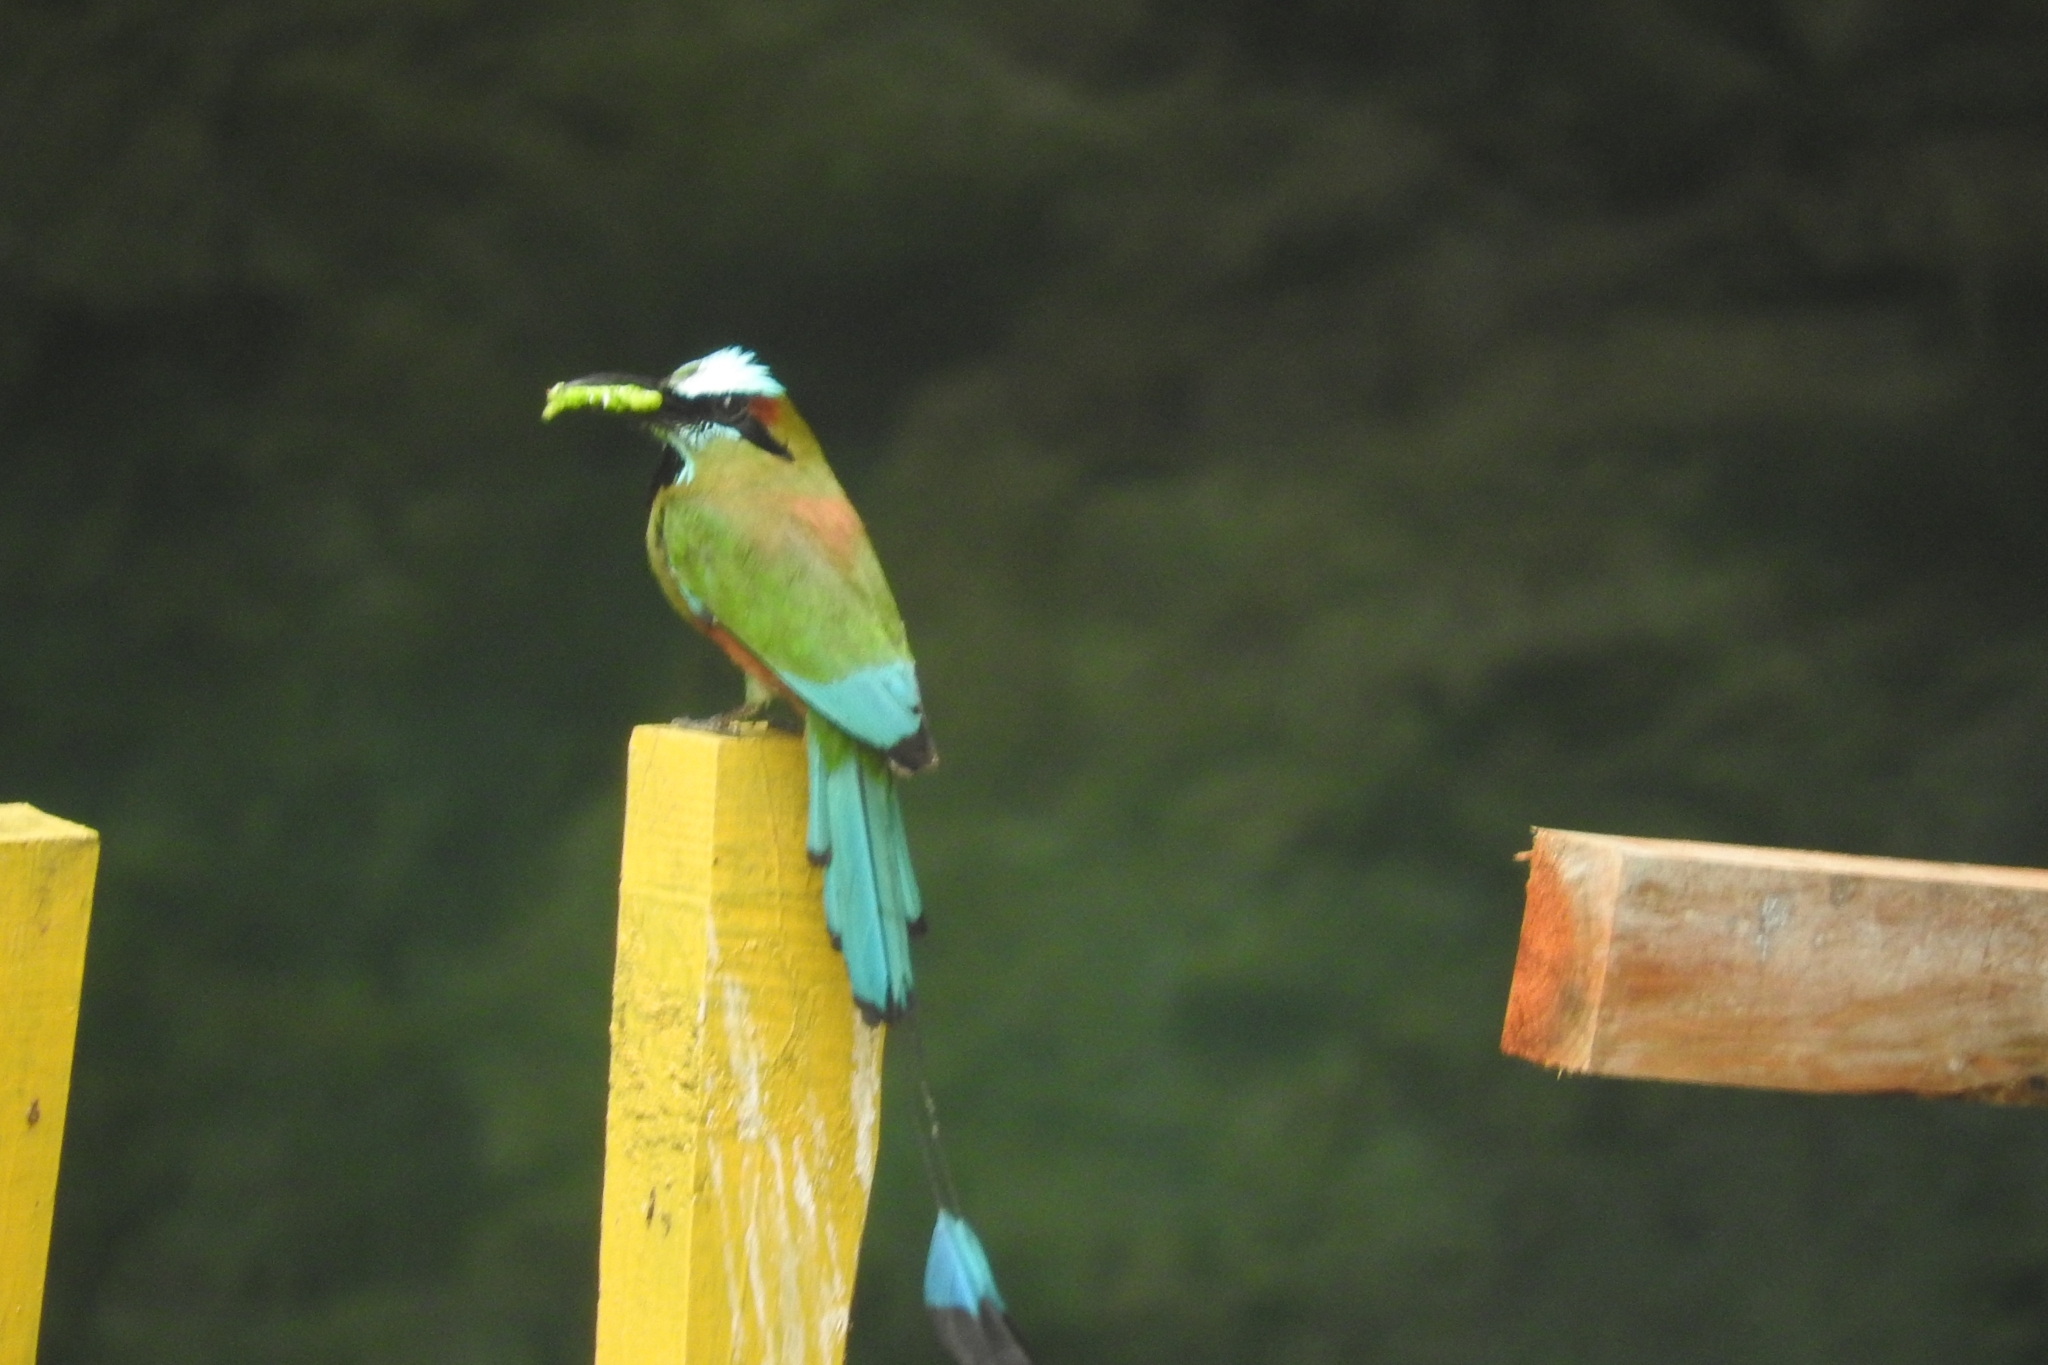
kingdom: Animalia
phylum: Chordata
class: Aves
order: Coraciiformes
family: Momotidae
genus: Eumomota
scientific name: Eumomota superciliosa
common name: Turquoise-browed motmot
